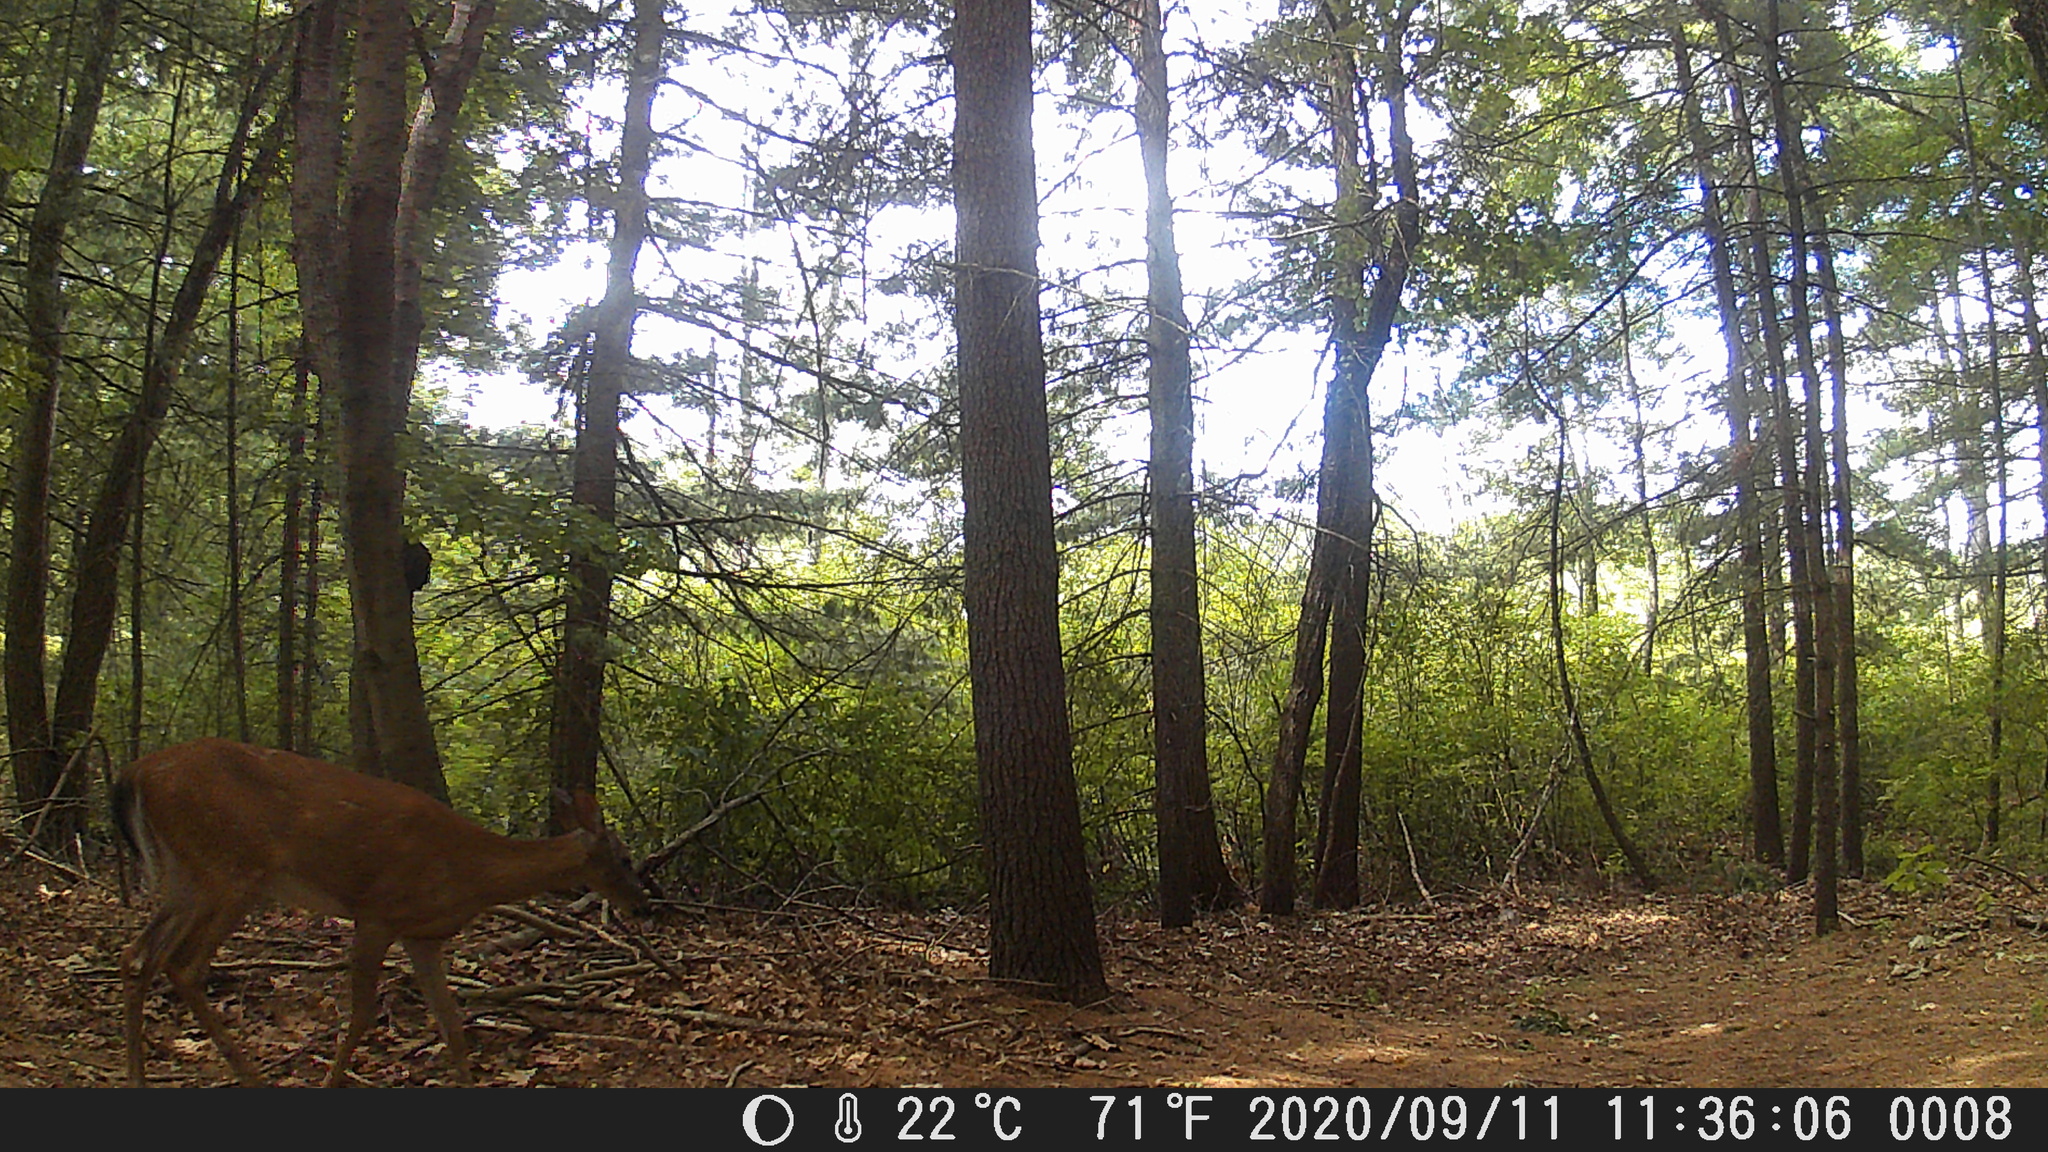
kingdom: Animalia
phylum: Chordata
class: Mammalia
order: Artiodactyla
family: Cervidae
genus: Odocoileus
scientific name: Odocoileus virginianus
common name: White-tailed deer
